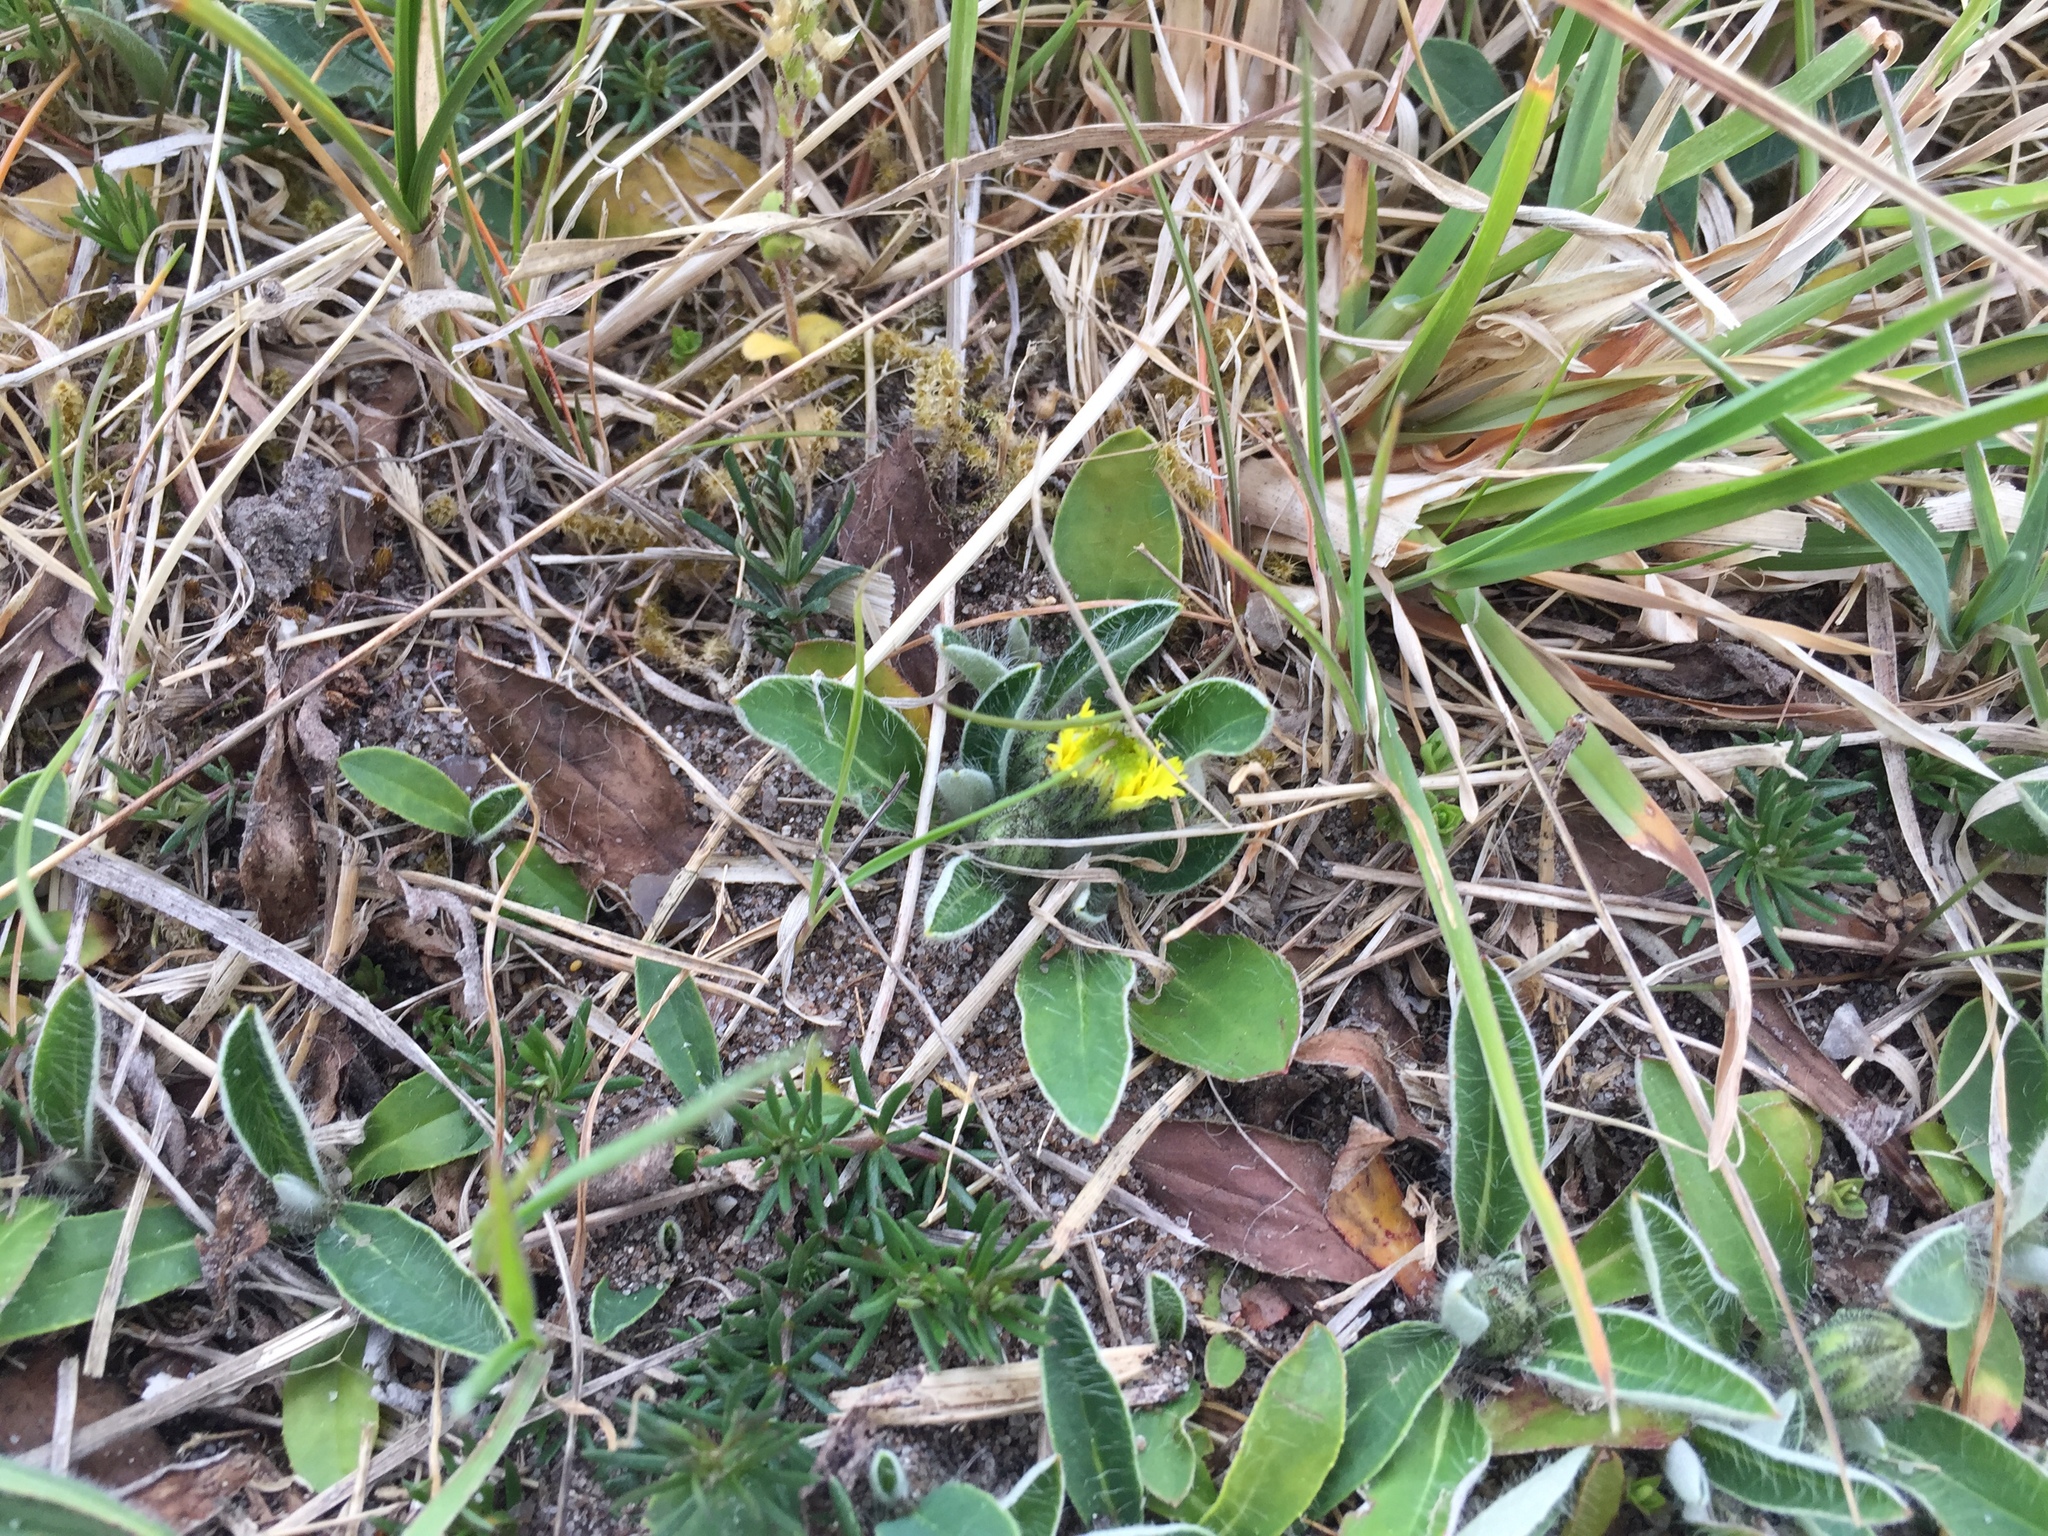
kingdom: Plantae
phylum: Tracheophyta
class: Magnoliopsida
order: Asterales
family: Asteraceae
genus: Pilosella
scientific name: Pilosella officinarum
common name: Mouse-ear hawkweed
